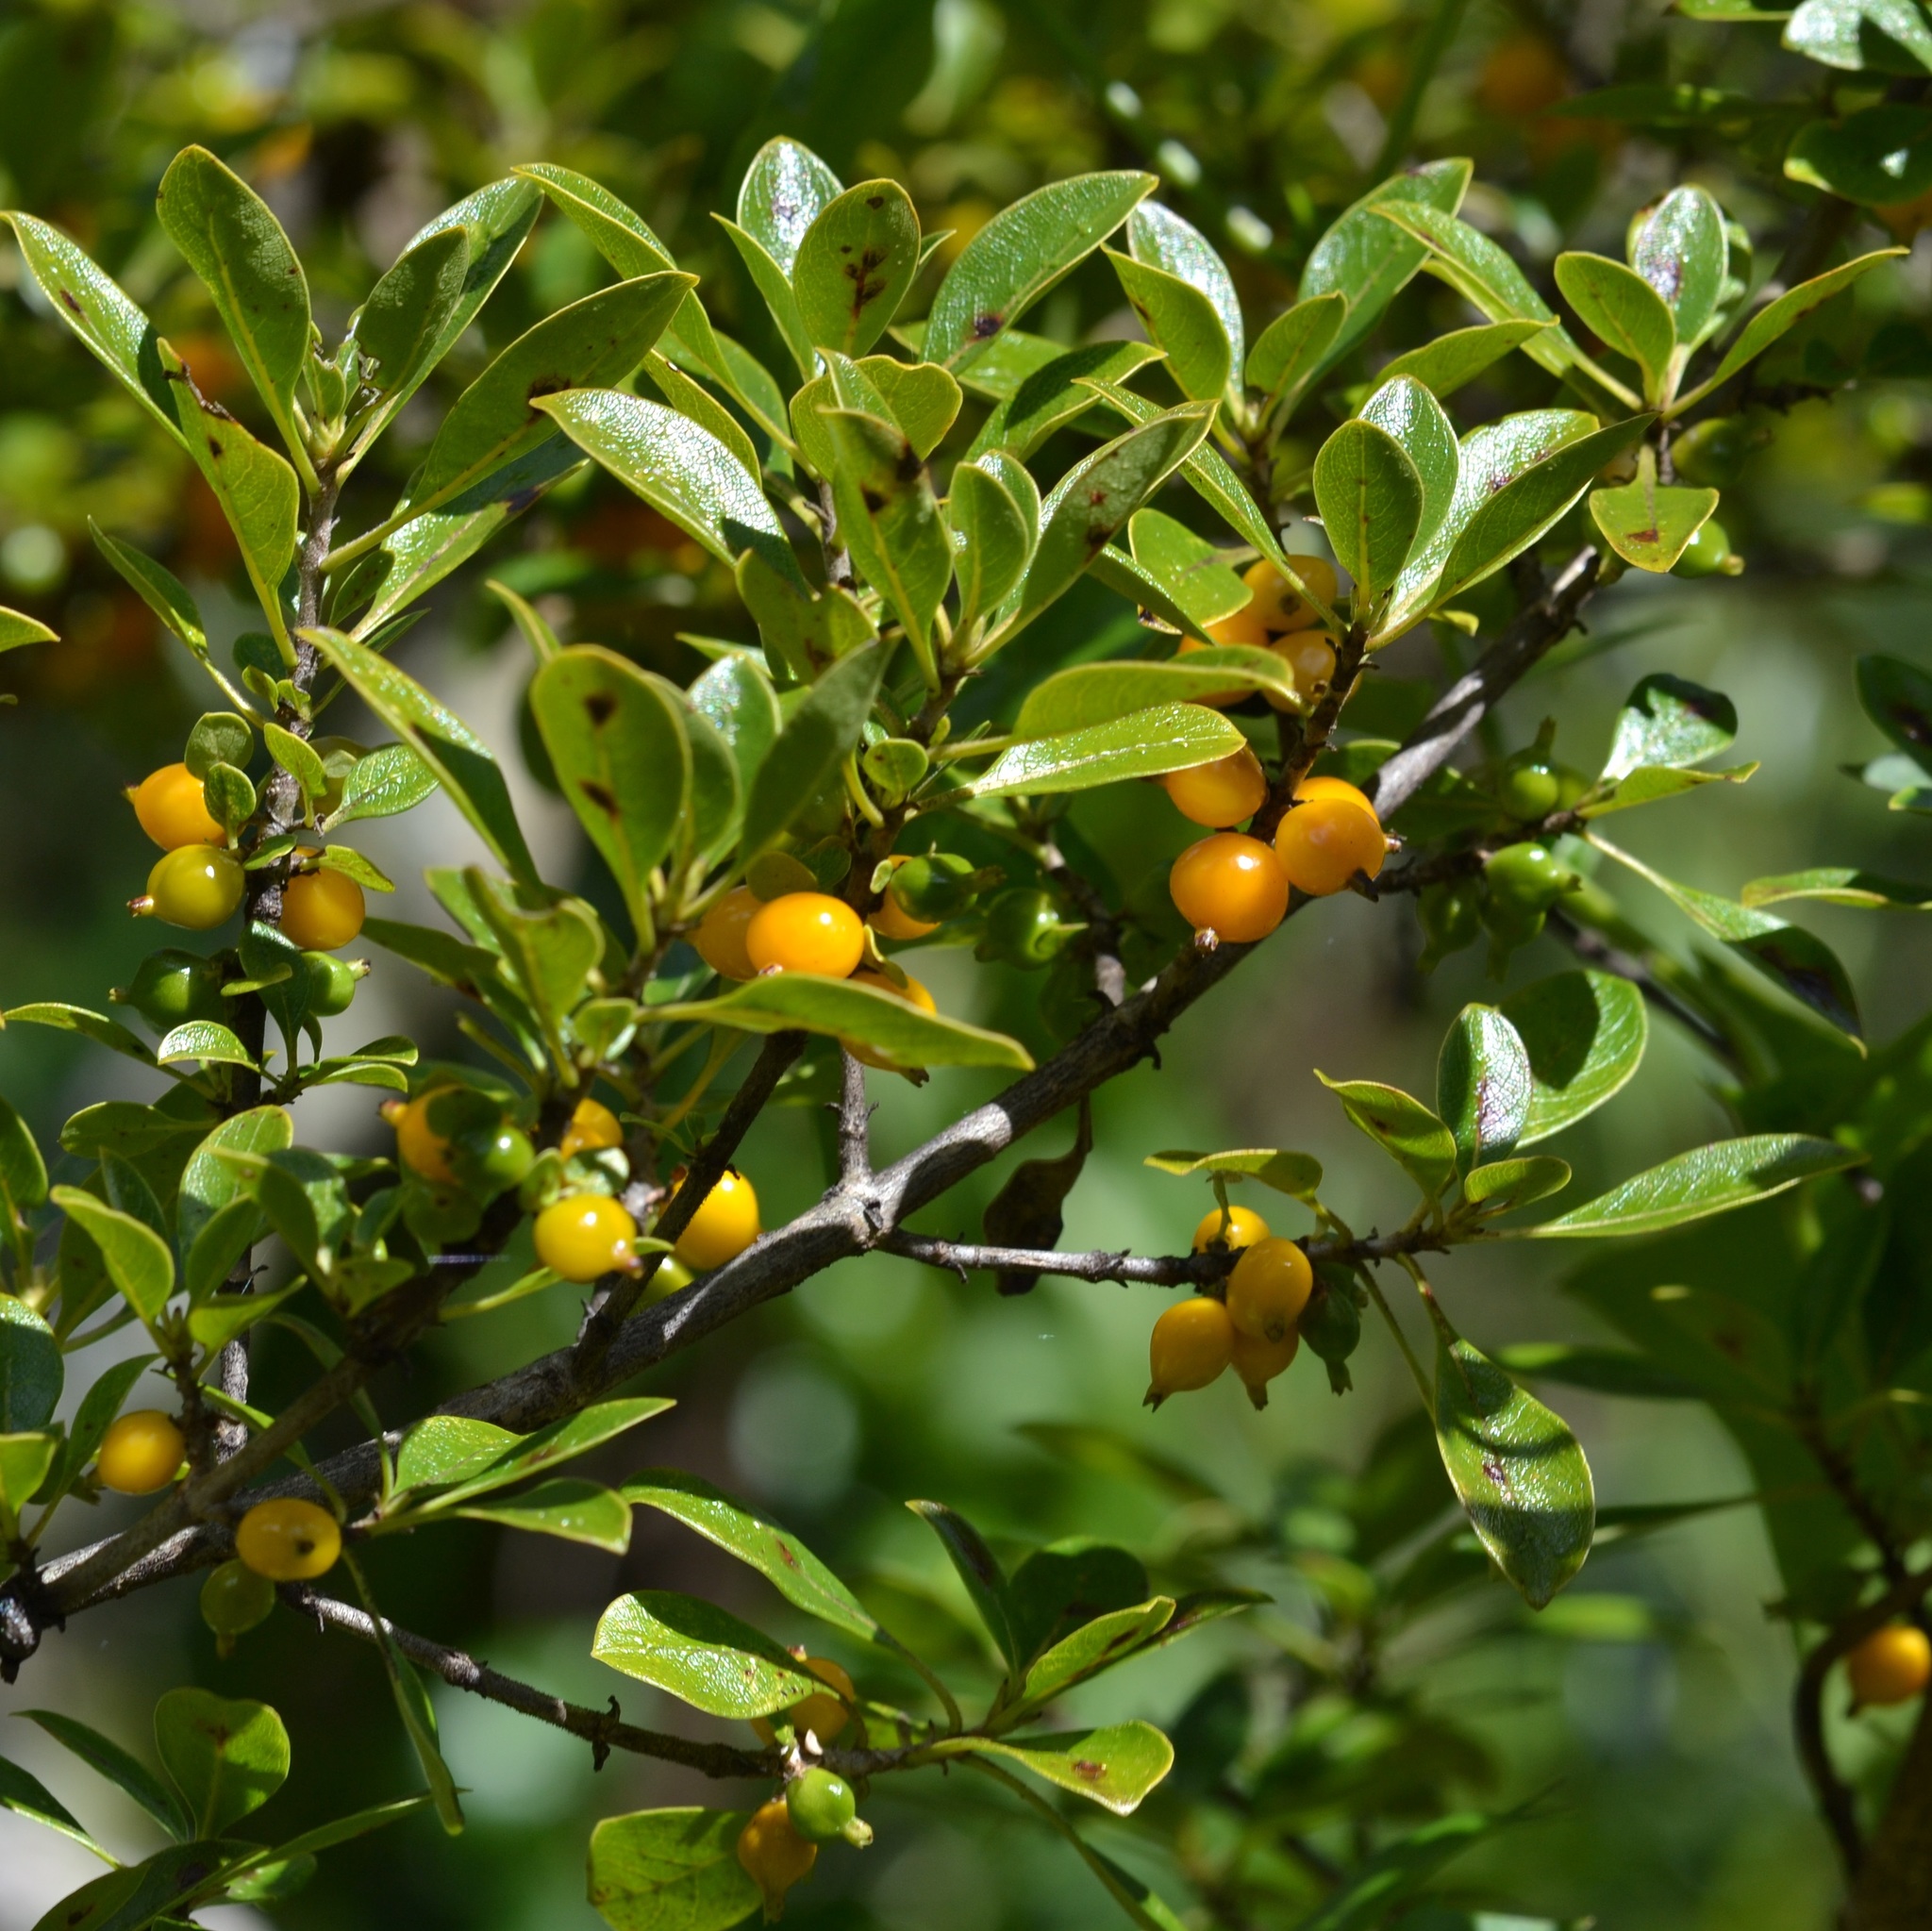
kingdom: Plantae
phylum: Tracheophyta
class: Magnoliopsida
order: Gentianales
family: Rubiaceae
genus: Coprosma
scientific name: Coprosma montana
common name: Alpine mirror plant
